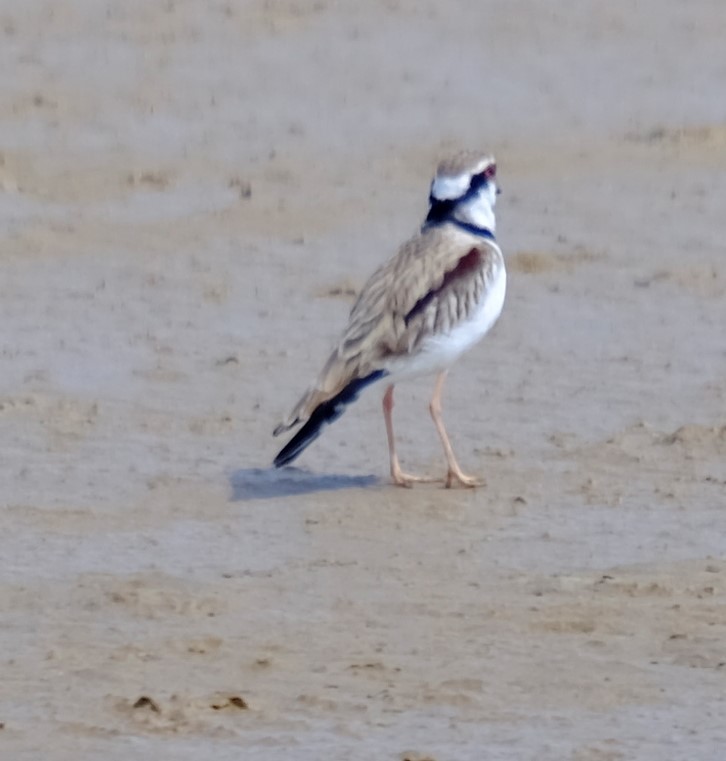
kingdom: Animalia
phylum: Chordata
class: Aves
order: Charadriiformes
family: Charadriidae
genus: Elseyornis
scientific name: Elseyornis melanops
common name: Black-fronted dotterel
